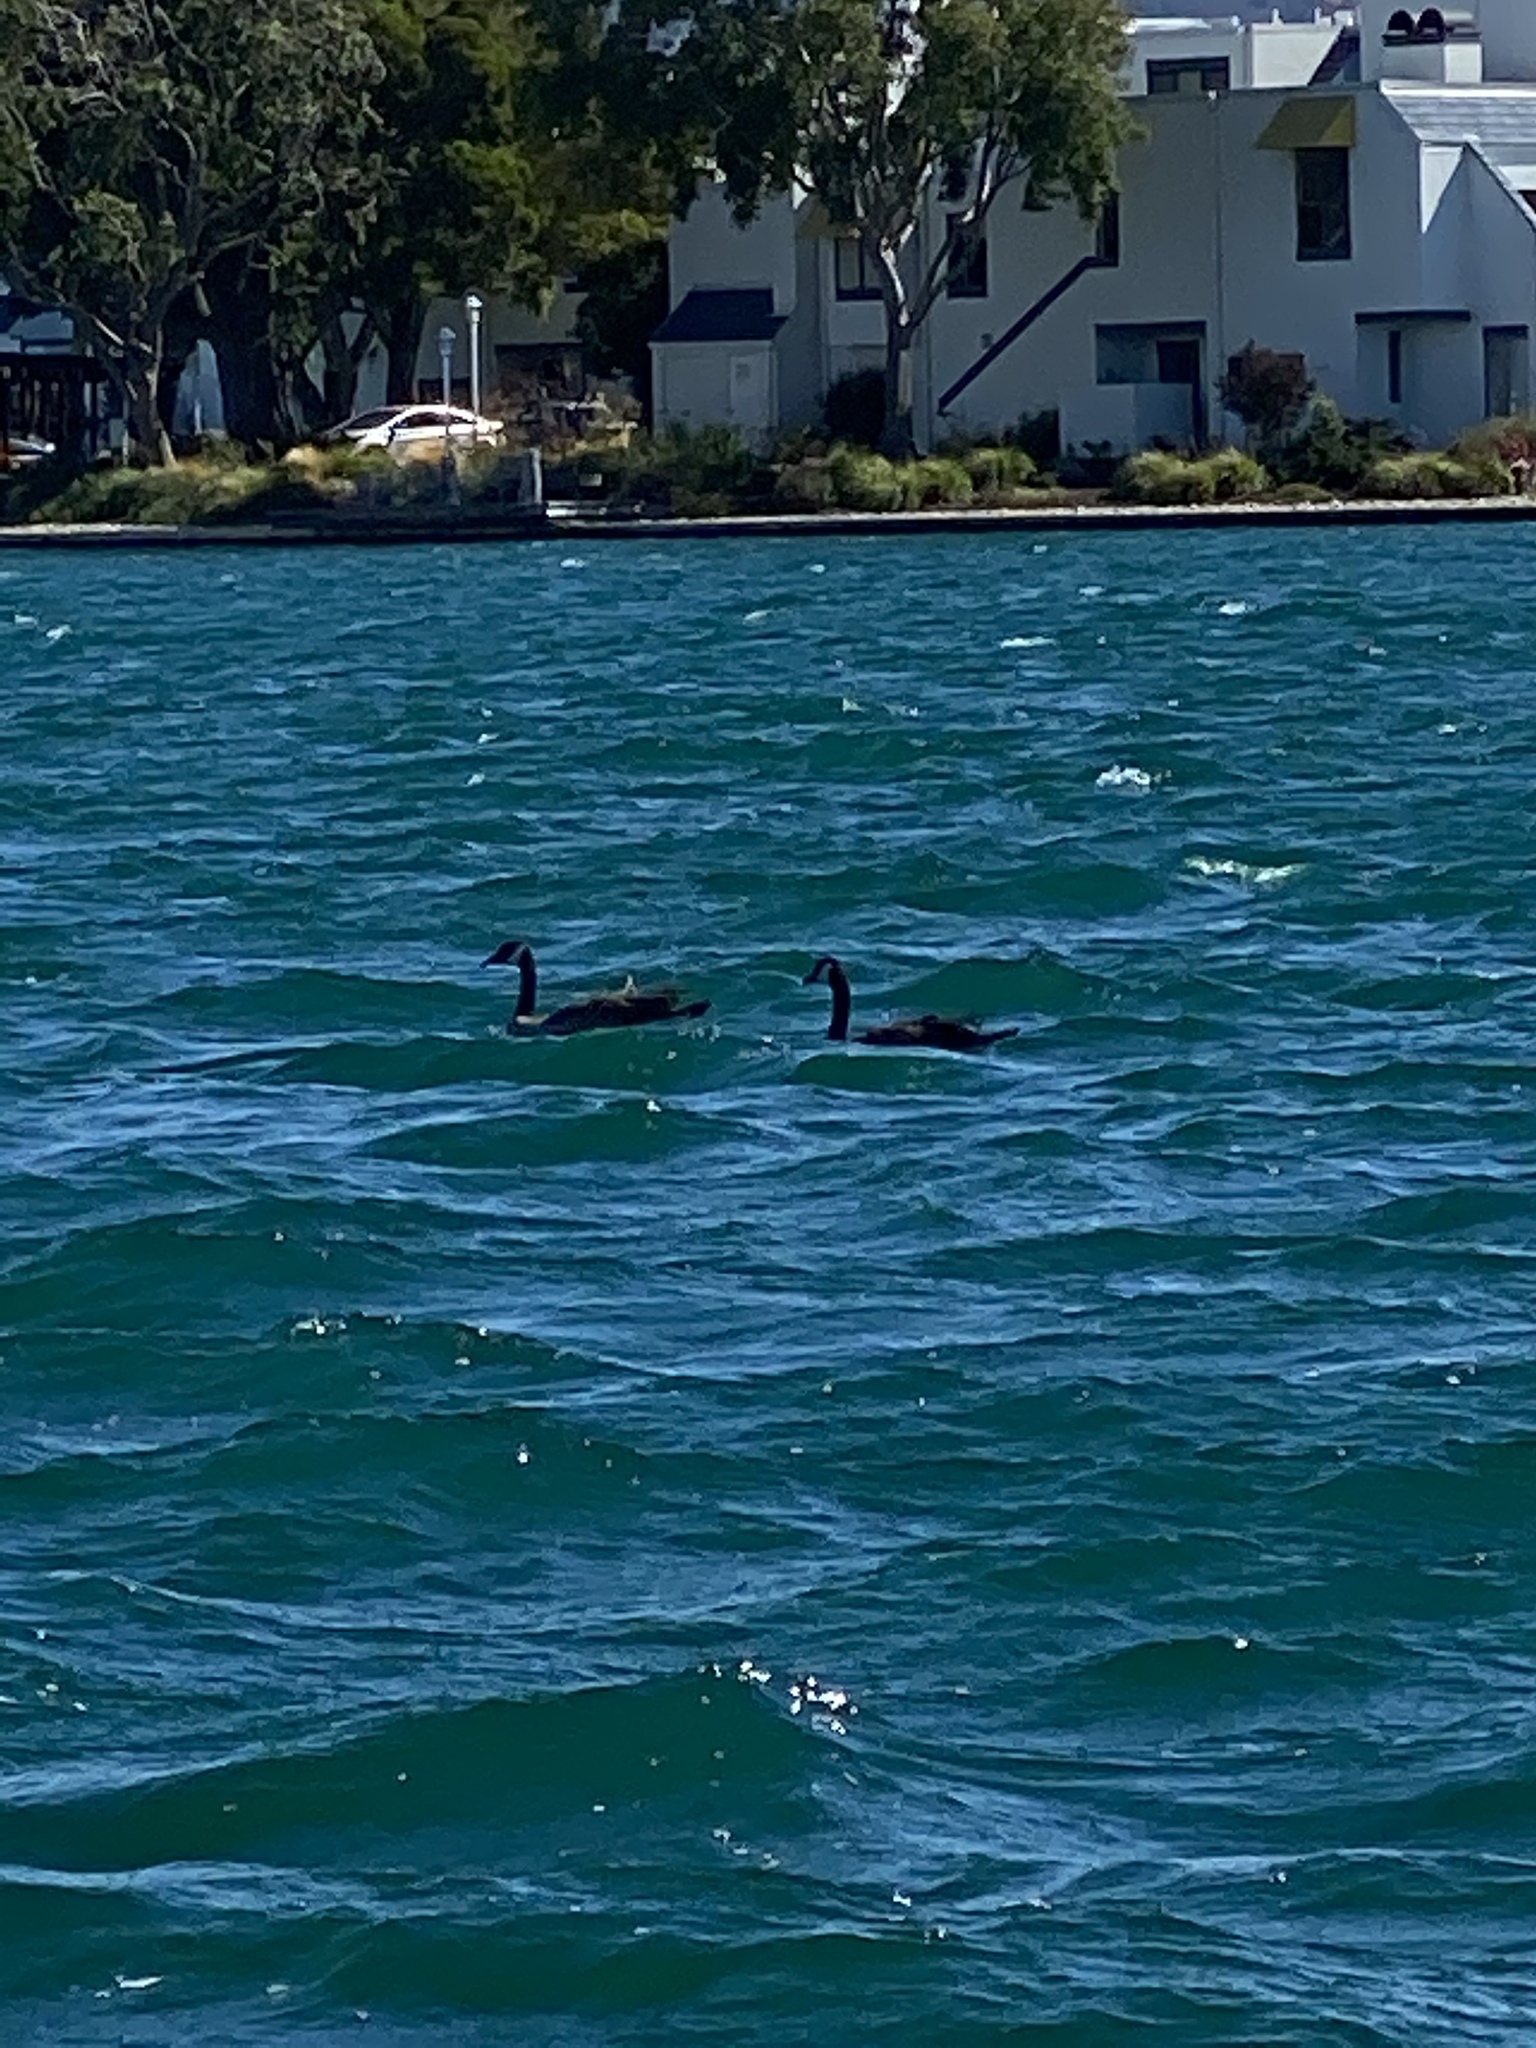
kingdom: Animalia
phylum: Chordata
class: Aves
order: Anseriformes
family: Anatidae
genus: Branta
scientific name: Branta canadensis
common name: Canada goose
